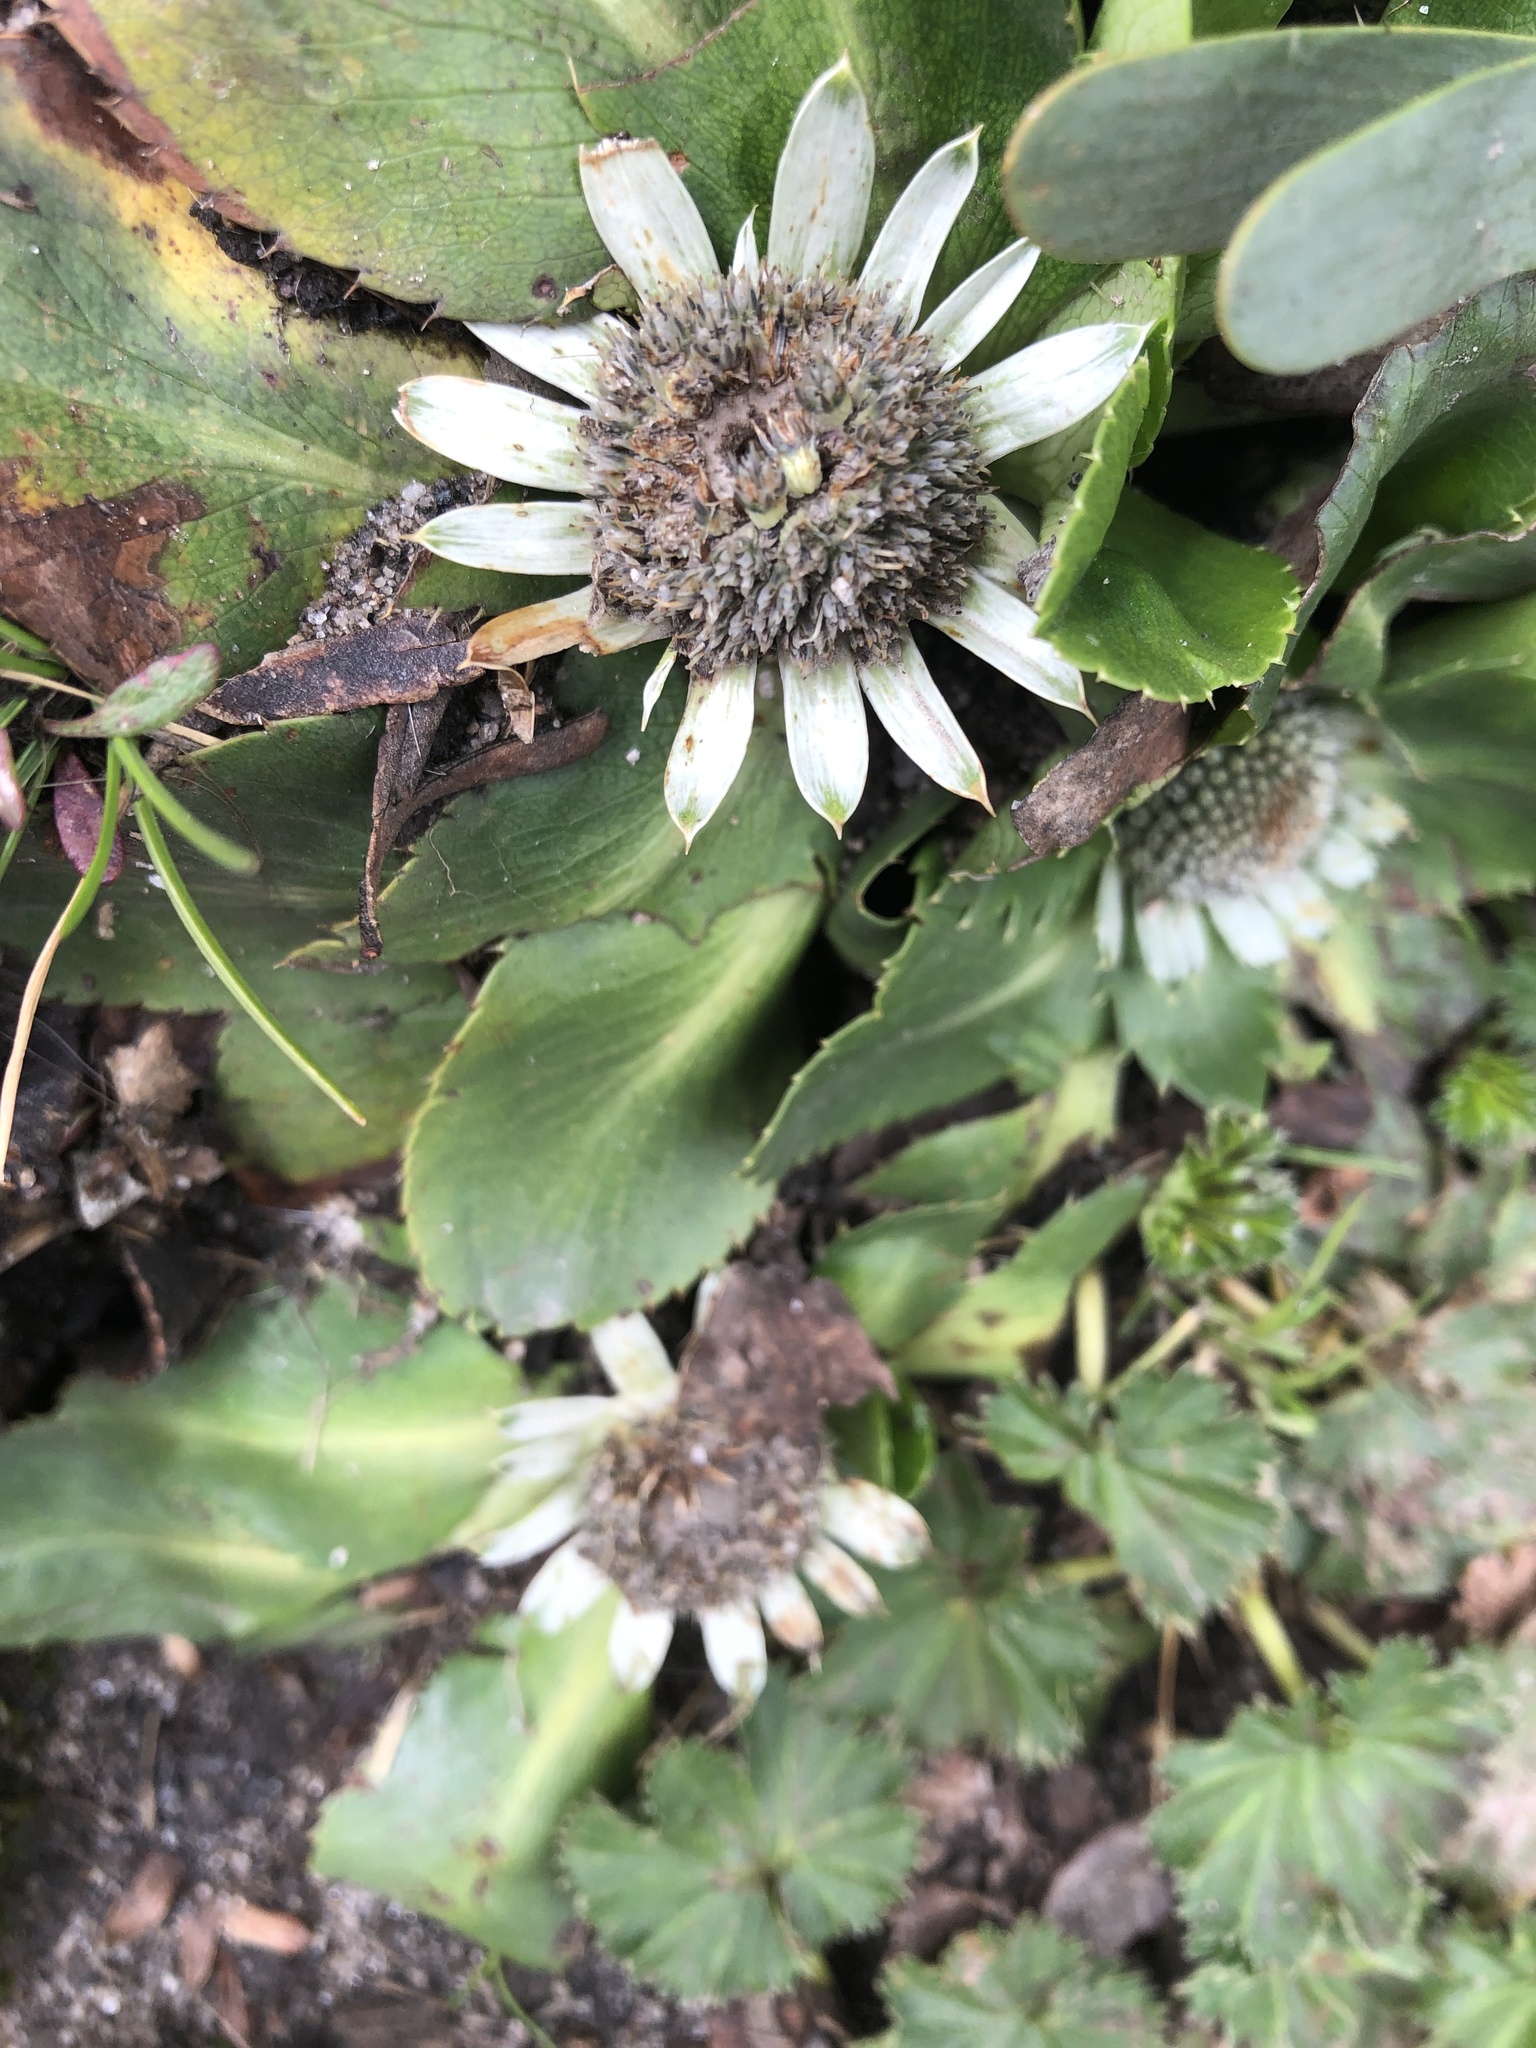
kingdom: Plantae
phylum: Tracheophyta
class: Magnoliopsida
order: Apiales
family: Apiaceae
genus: Eryngium
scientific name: Eryngium humile
